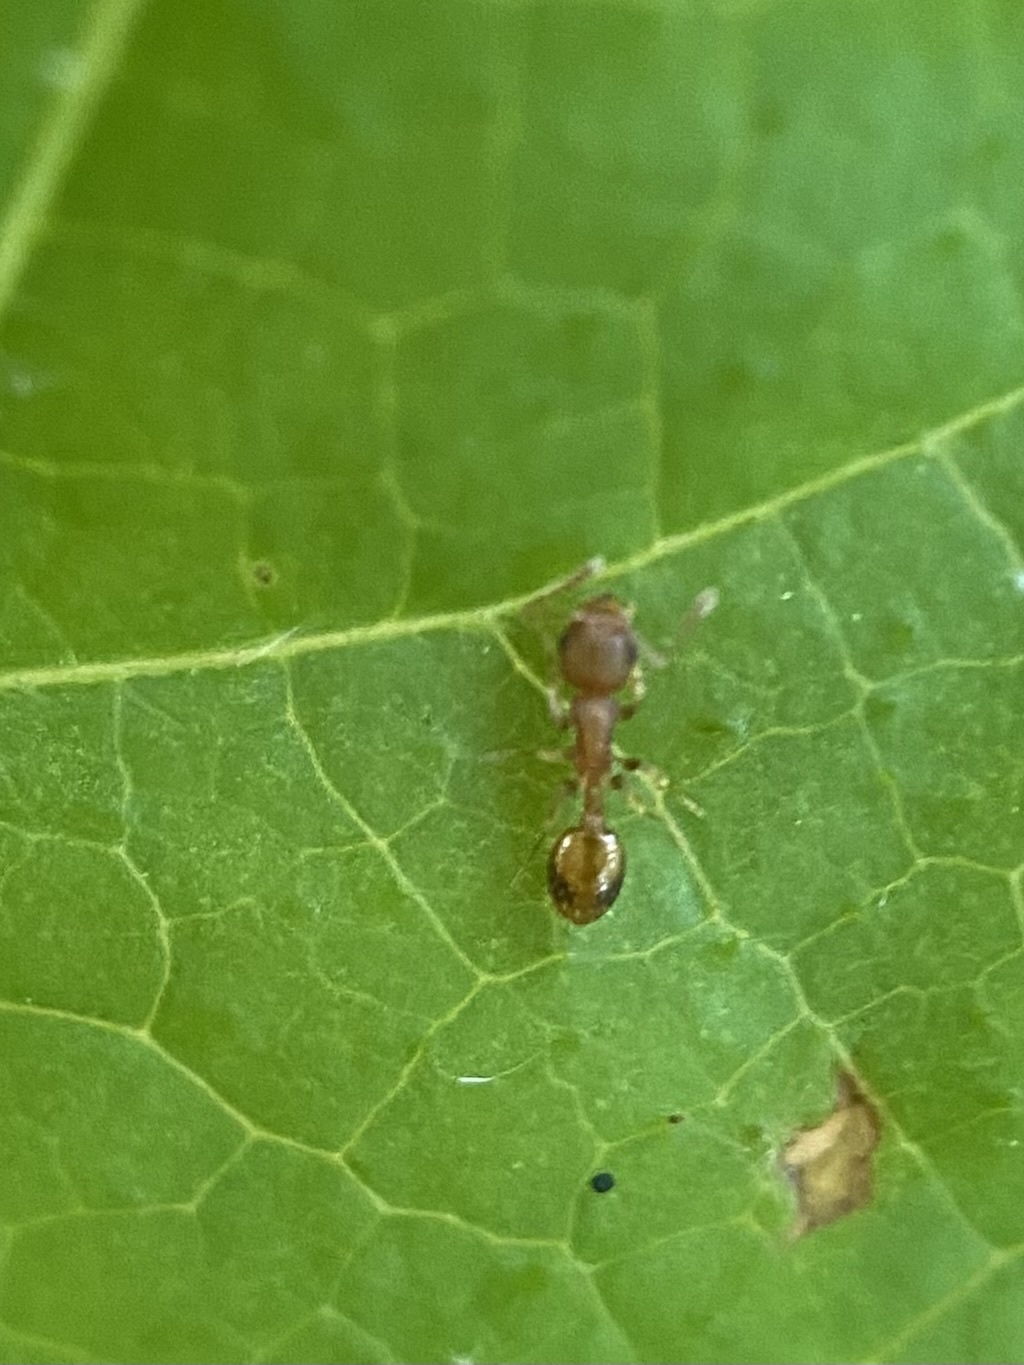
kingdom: Animalia
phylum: Arthropoda
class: Insecta
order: Hymenoptera
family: Formicidae
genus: Temnothorax
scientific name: Temnothorax curvispinosus
